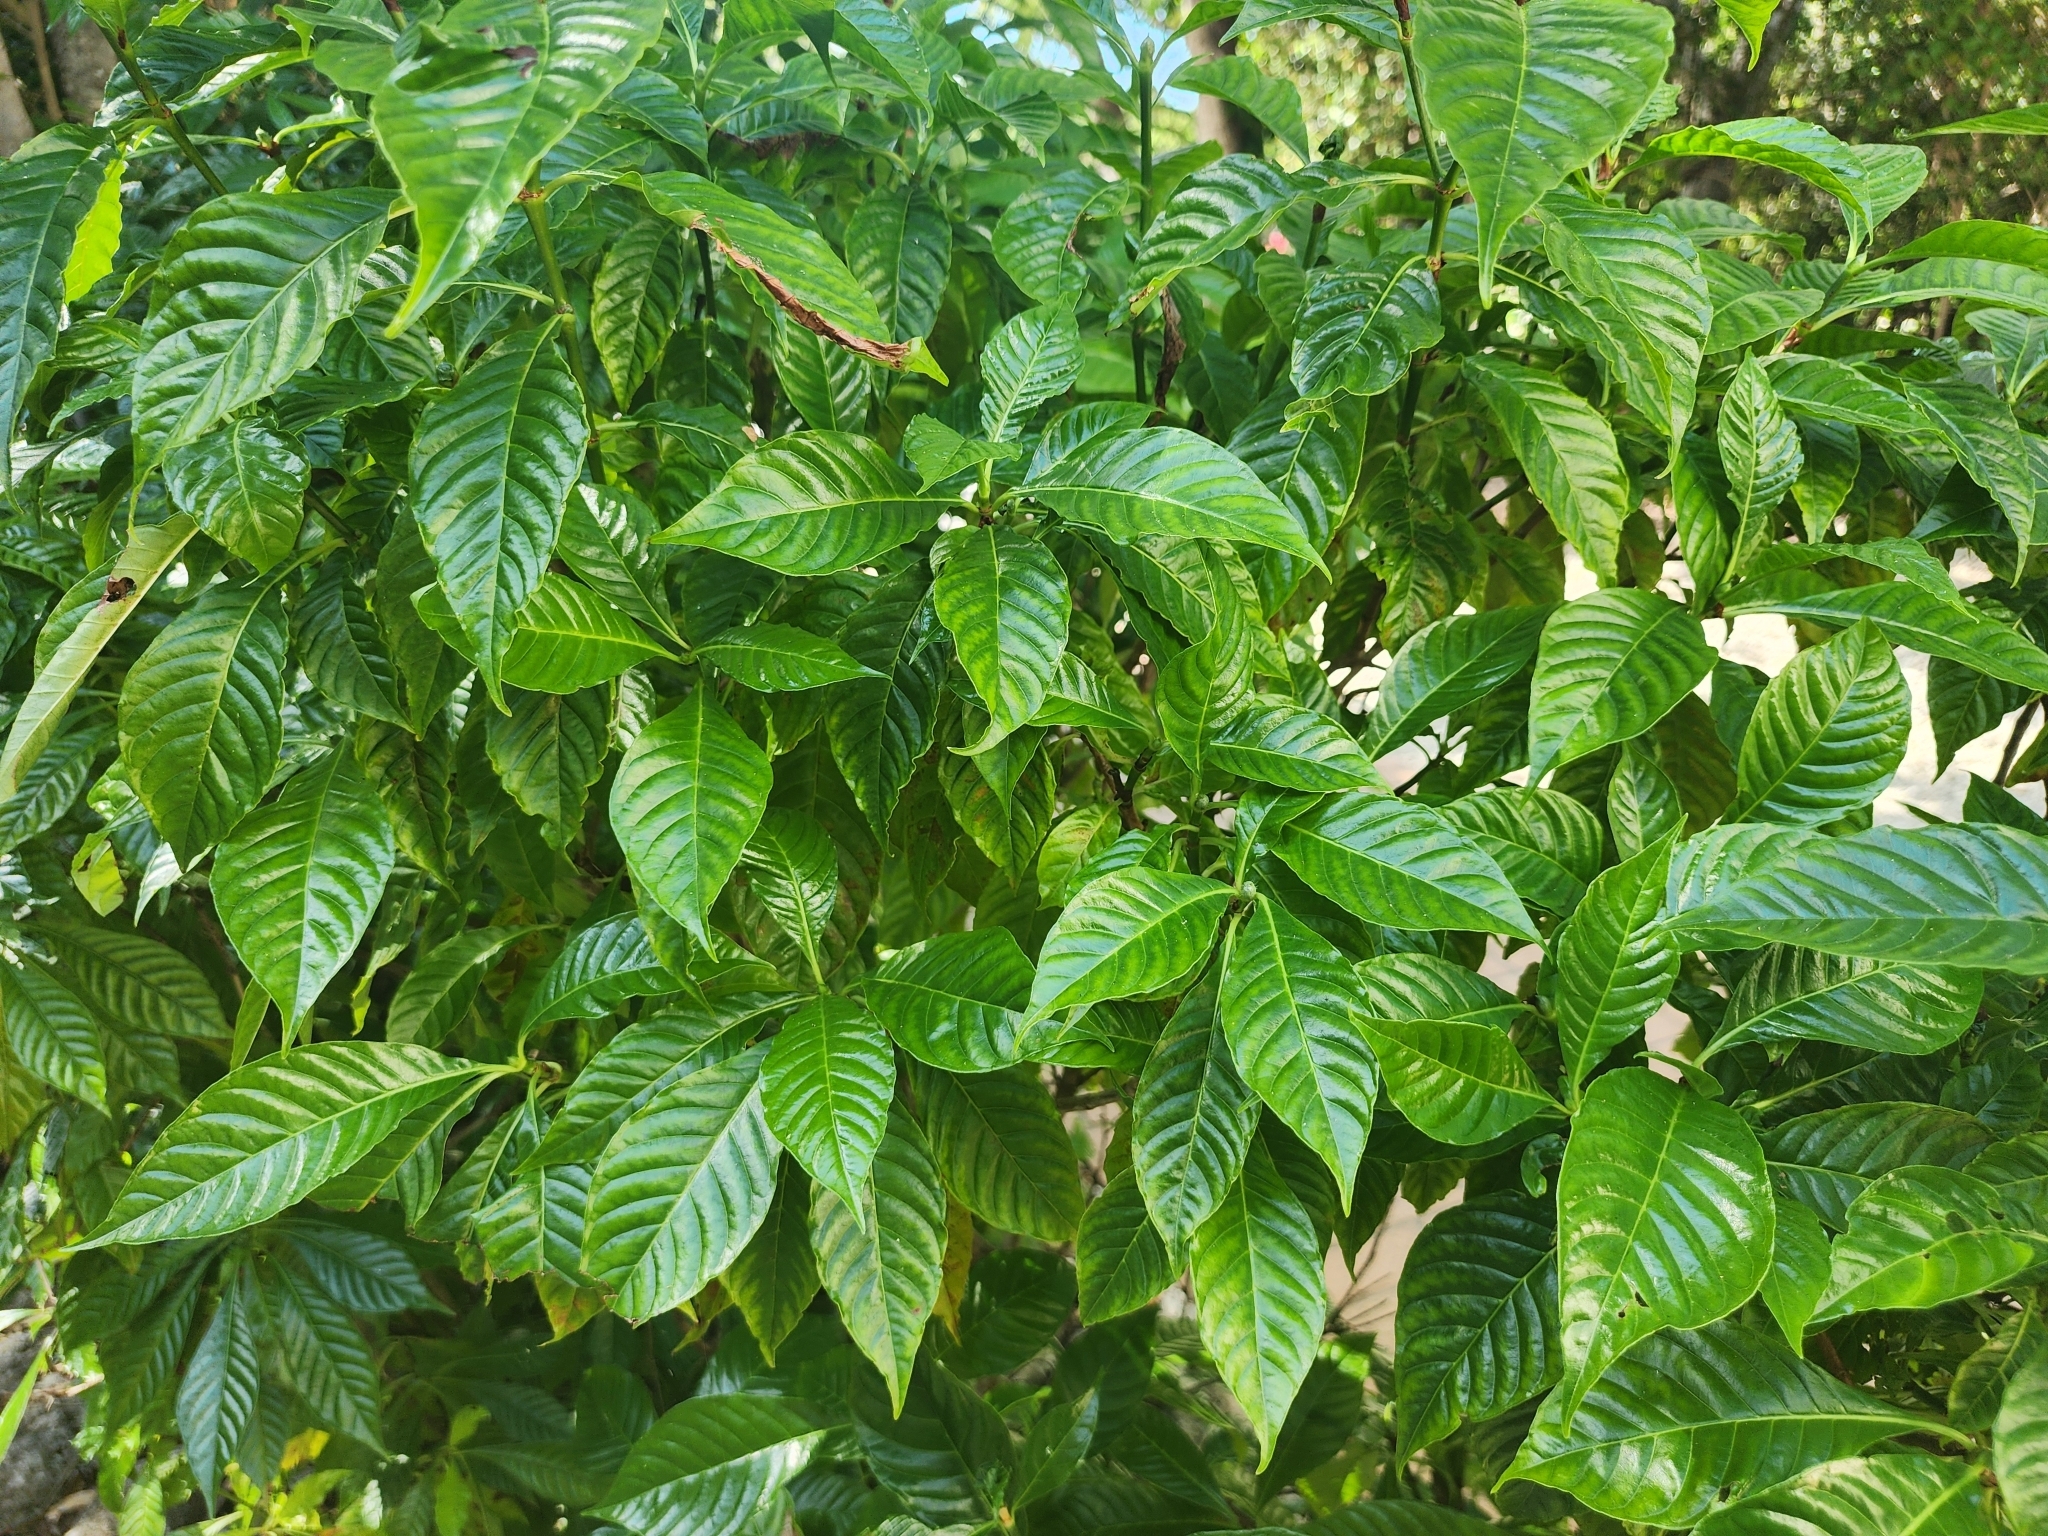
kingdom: Plantae
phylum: Tracheophyta
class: Magnoliopsida
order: Gentianales
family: Rubiaceae
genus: Psychotria
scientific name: Psychotria nervosa
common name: Bastard cankerberry
